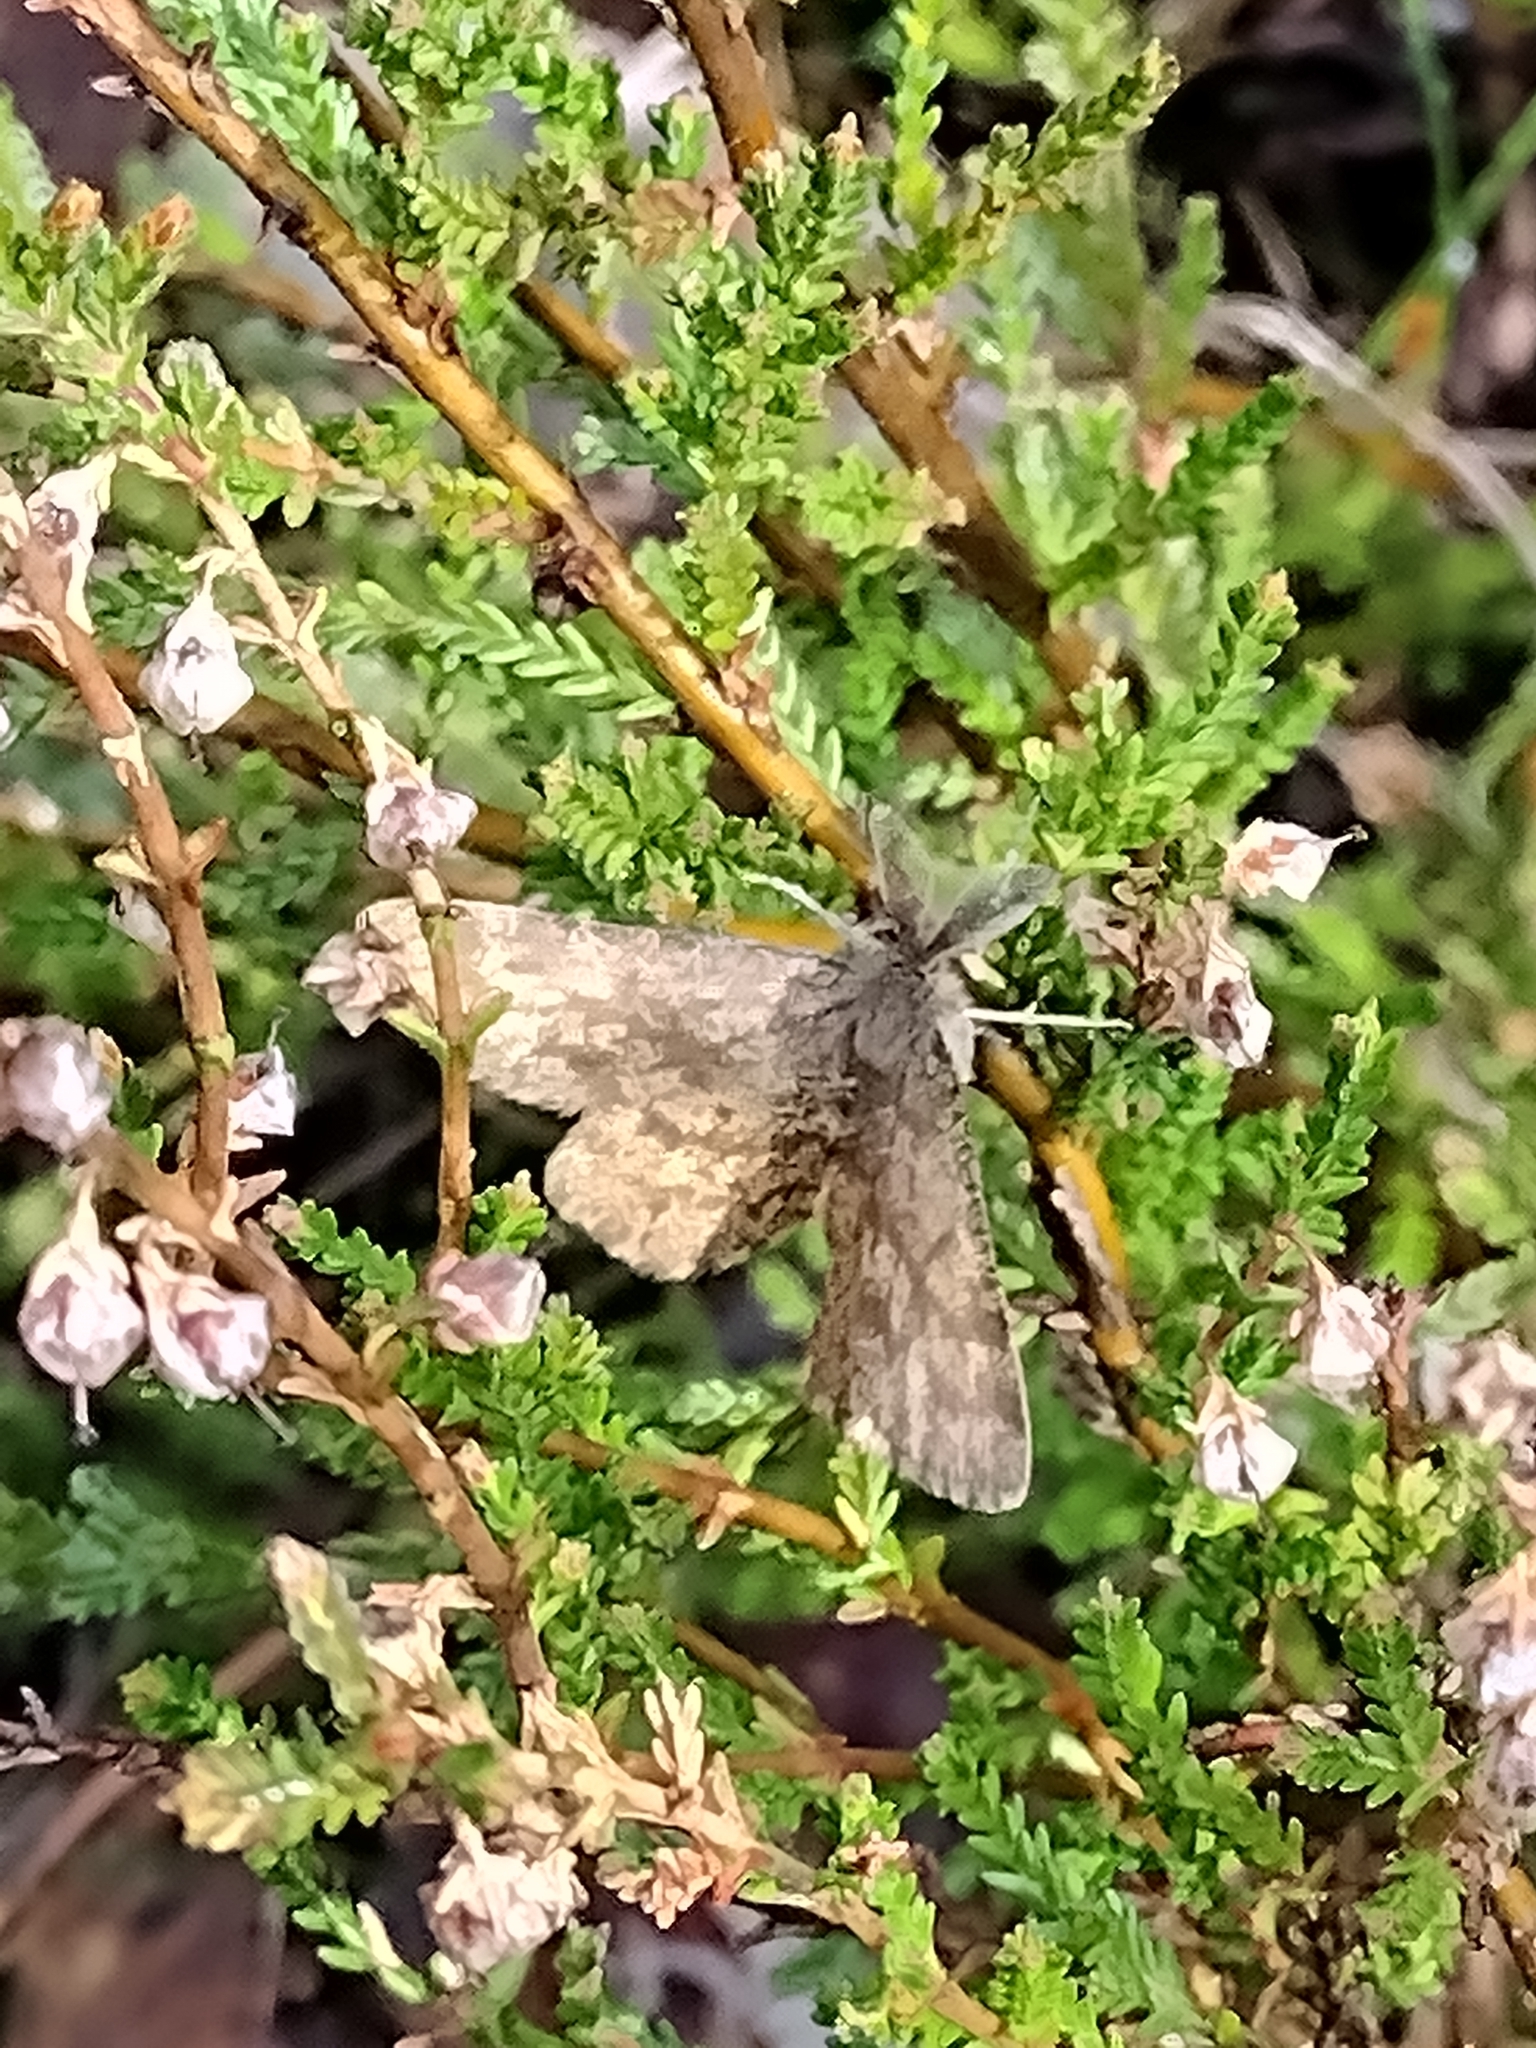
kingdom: Animalia
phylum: Arthropoda
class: Insecta
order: Lepidoptera
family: Geometridae
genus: Ematurga
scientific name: Ematurga atomaria
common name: Common heath
